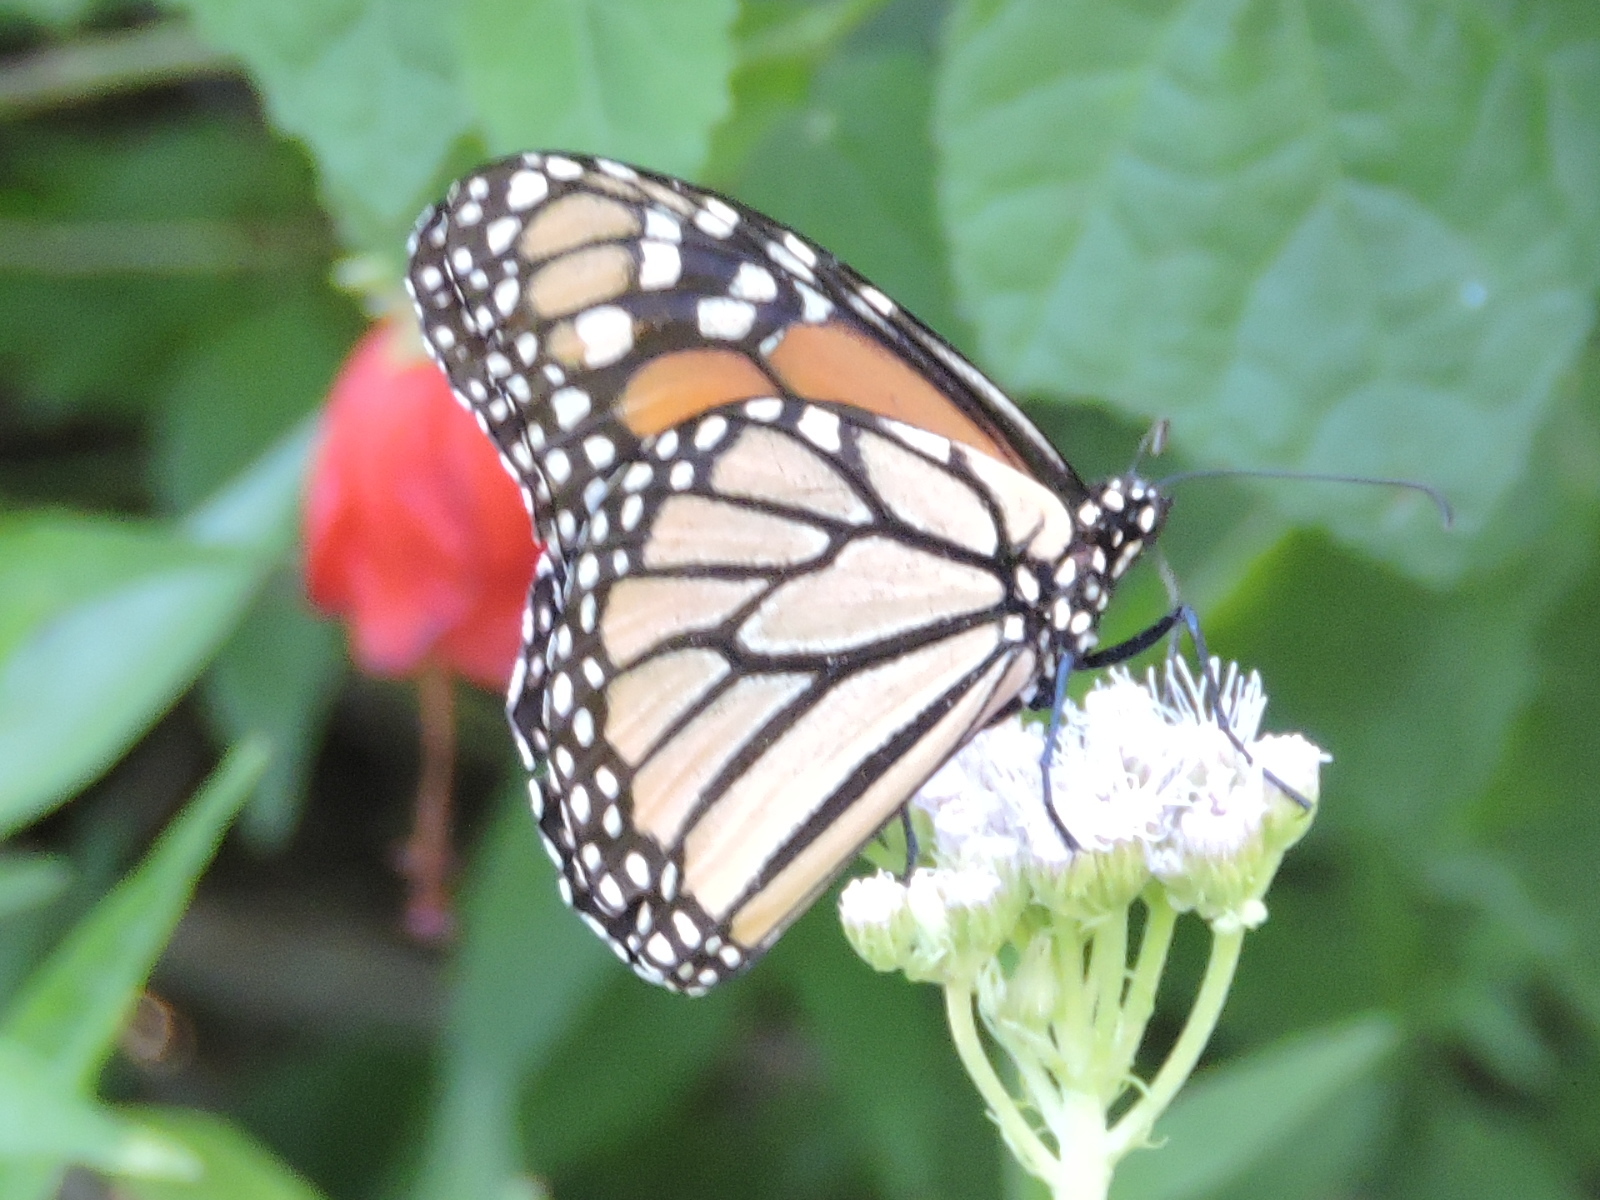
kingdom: Animalia
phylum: Arthropoda
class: Insecta
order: Lepidoptera
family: Nymphalidae
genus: Danaus
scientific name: Danaus plexippus
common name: Monarch
